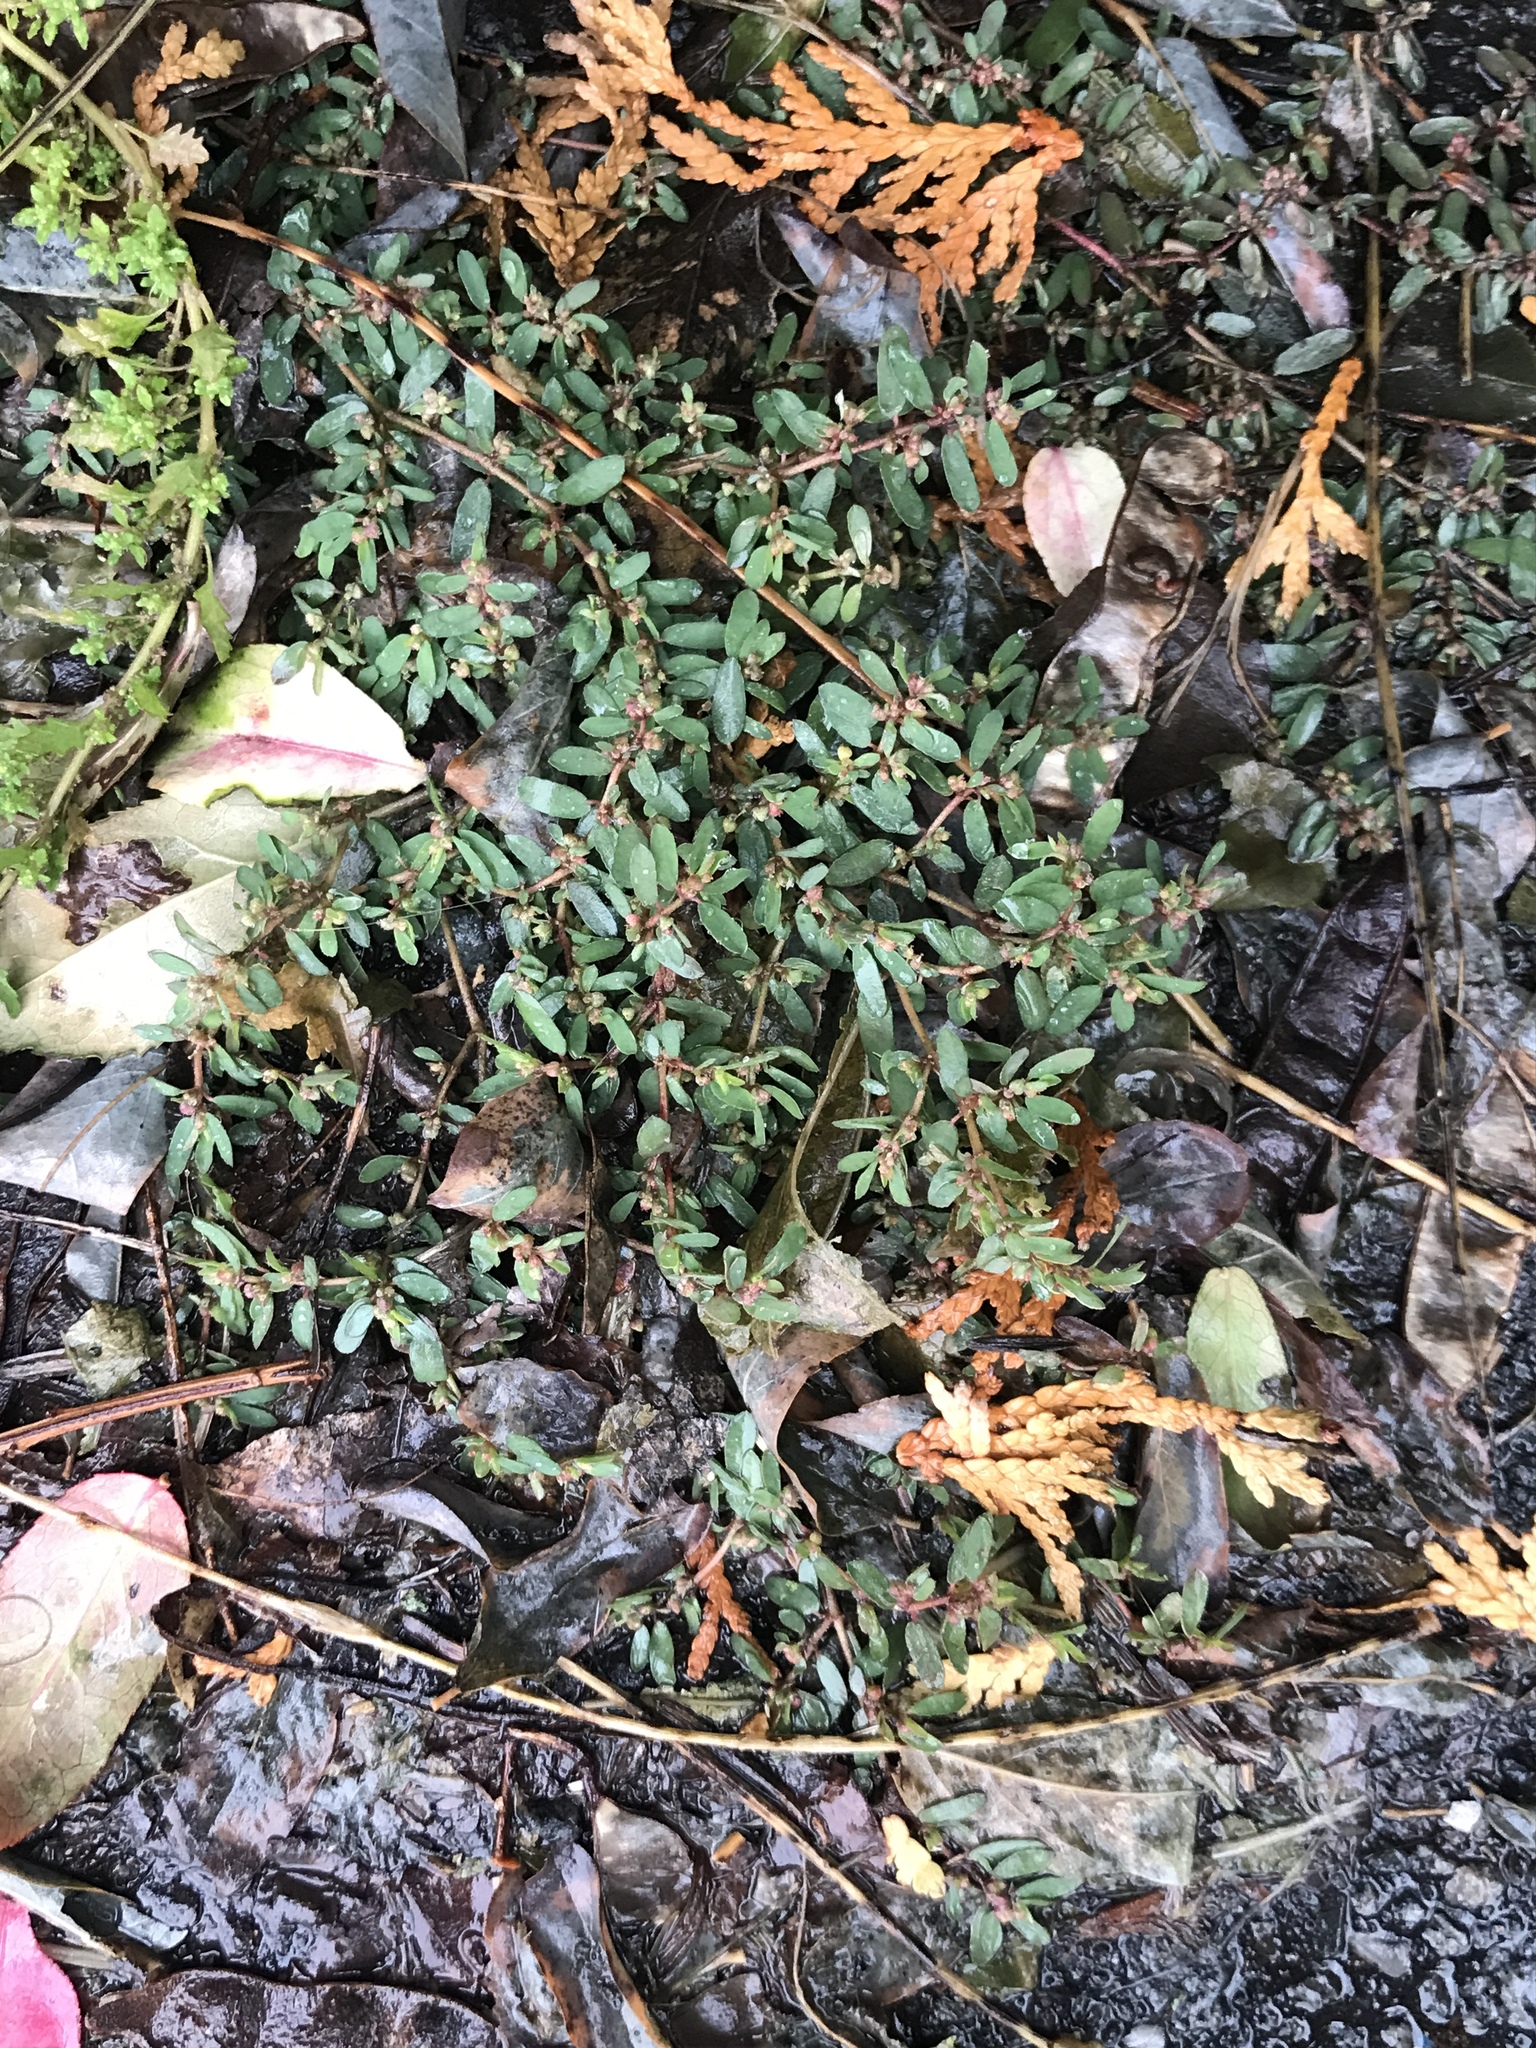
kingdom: Plantae
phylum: Tracheophyta
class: Magnoliopsida
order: Malpighiales
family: Euphorbiaceae
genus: Euphorbia
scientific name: Euphorbia maculata
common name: Spotted spurge
